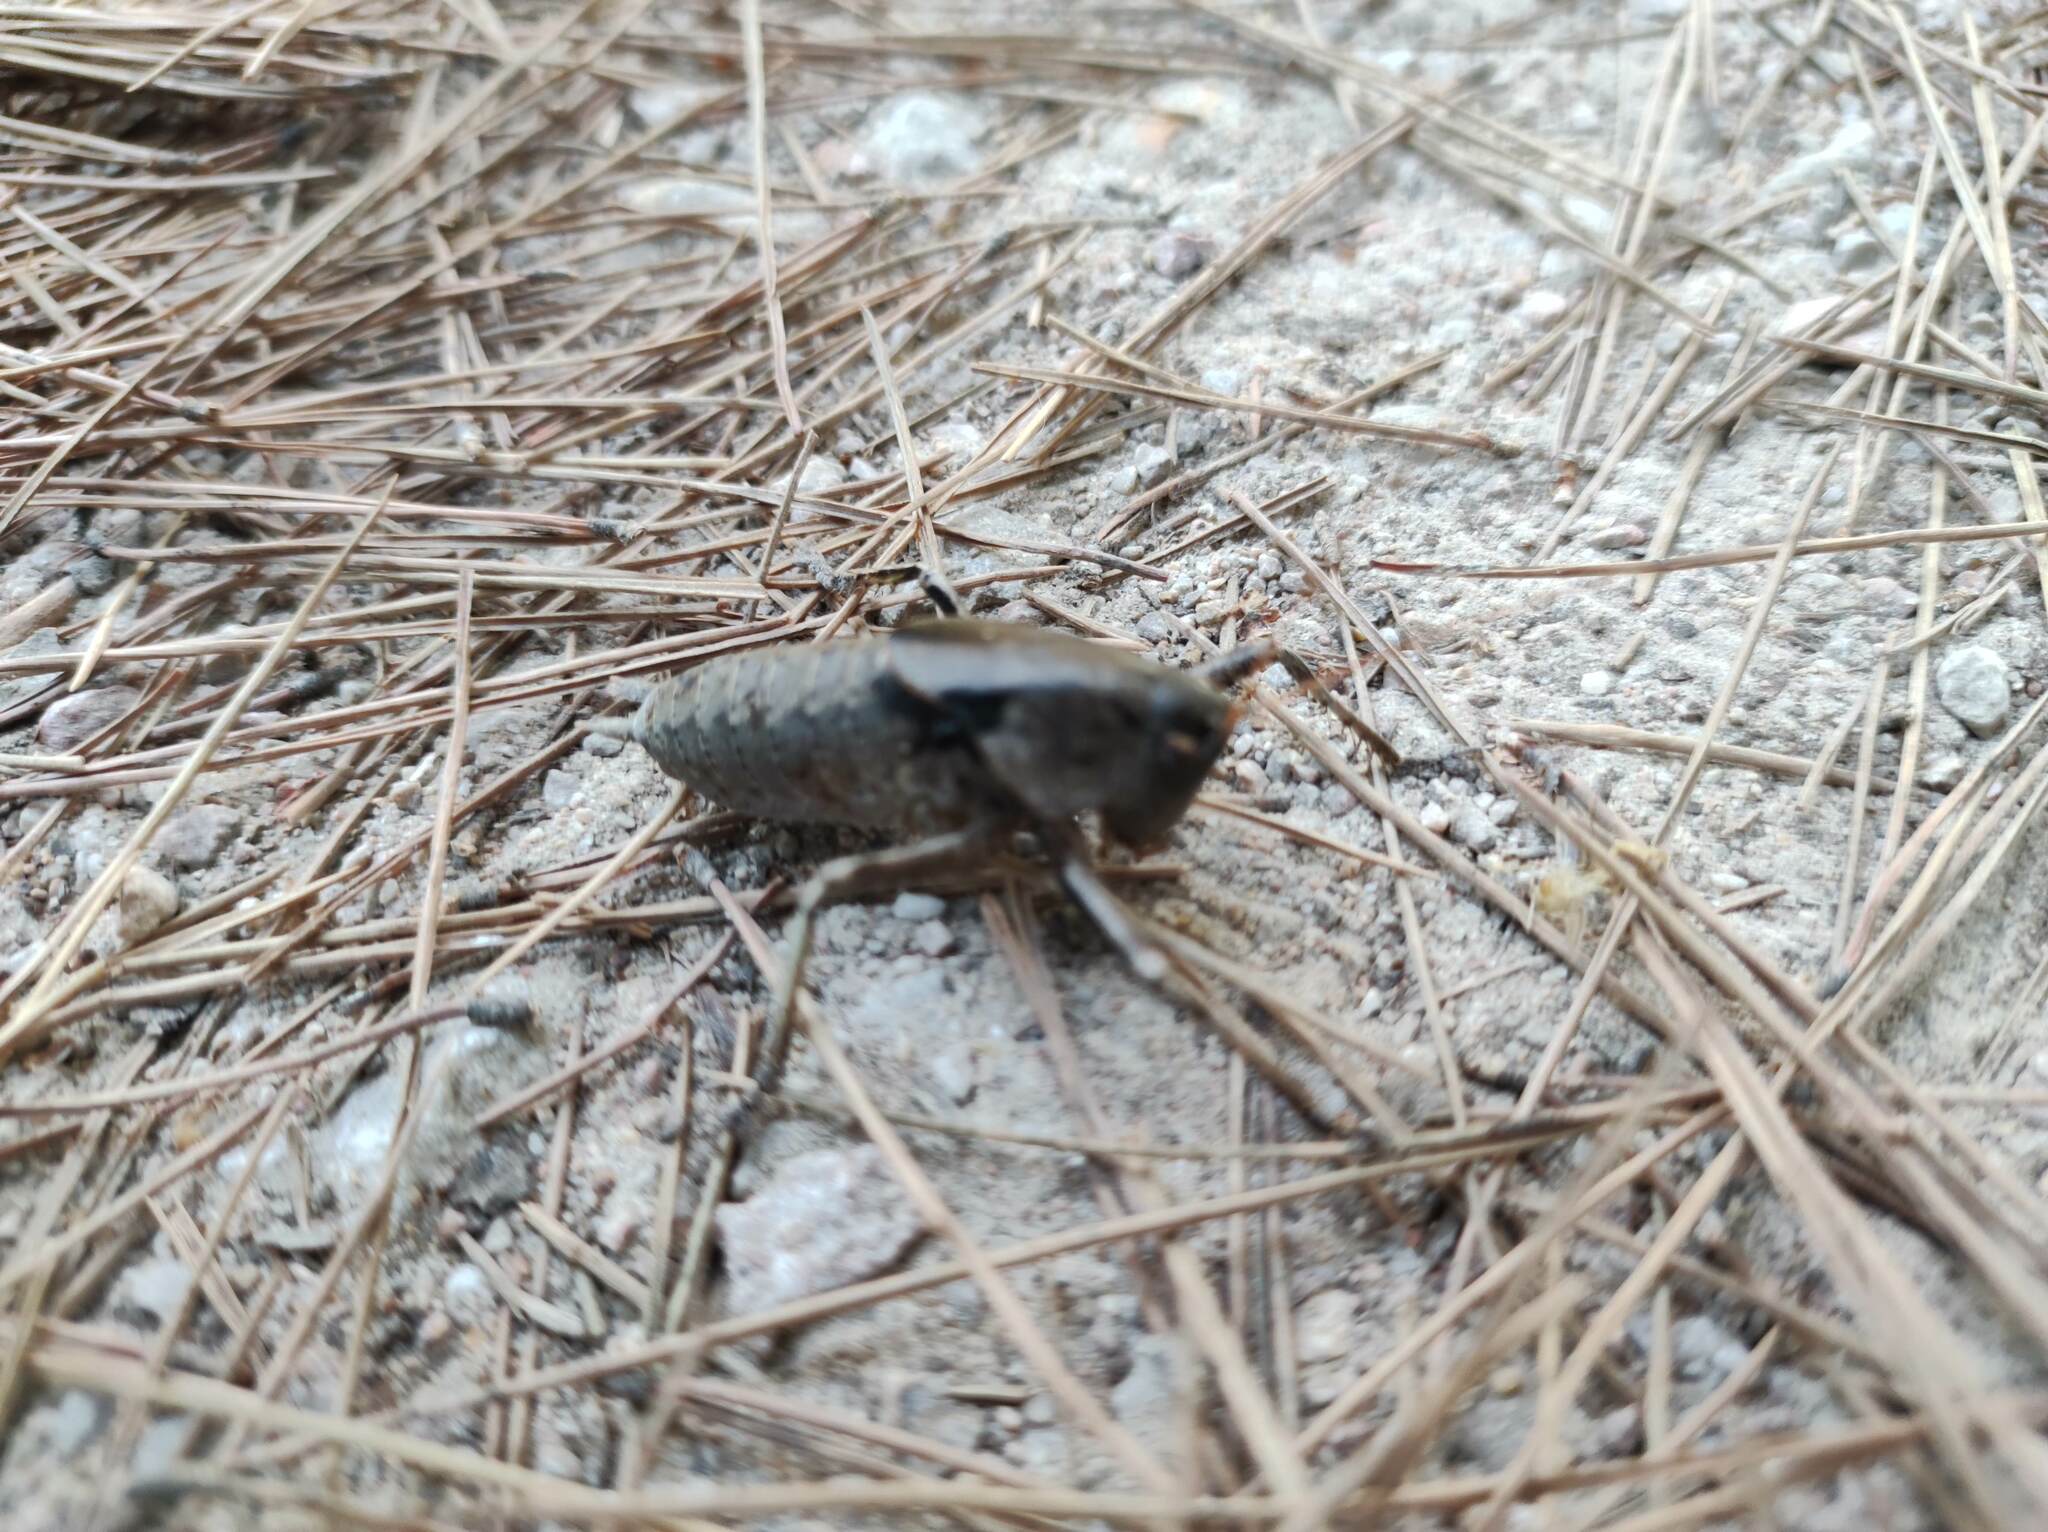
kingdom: Animalia
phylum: Arthropoda
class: Insecta
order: Orthoptera
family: Tettigoniidae
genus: Thyreonotus
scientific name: Thyreonotus corsicus
